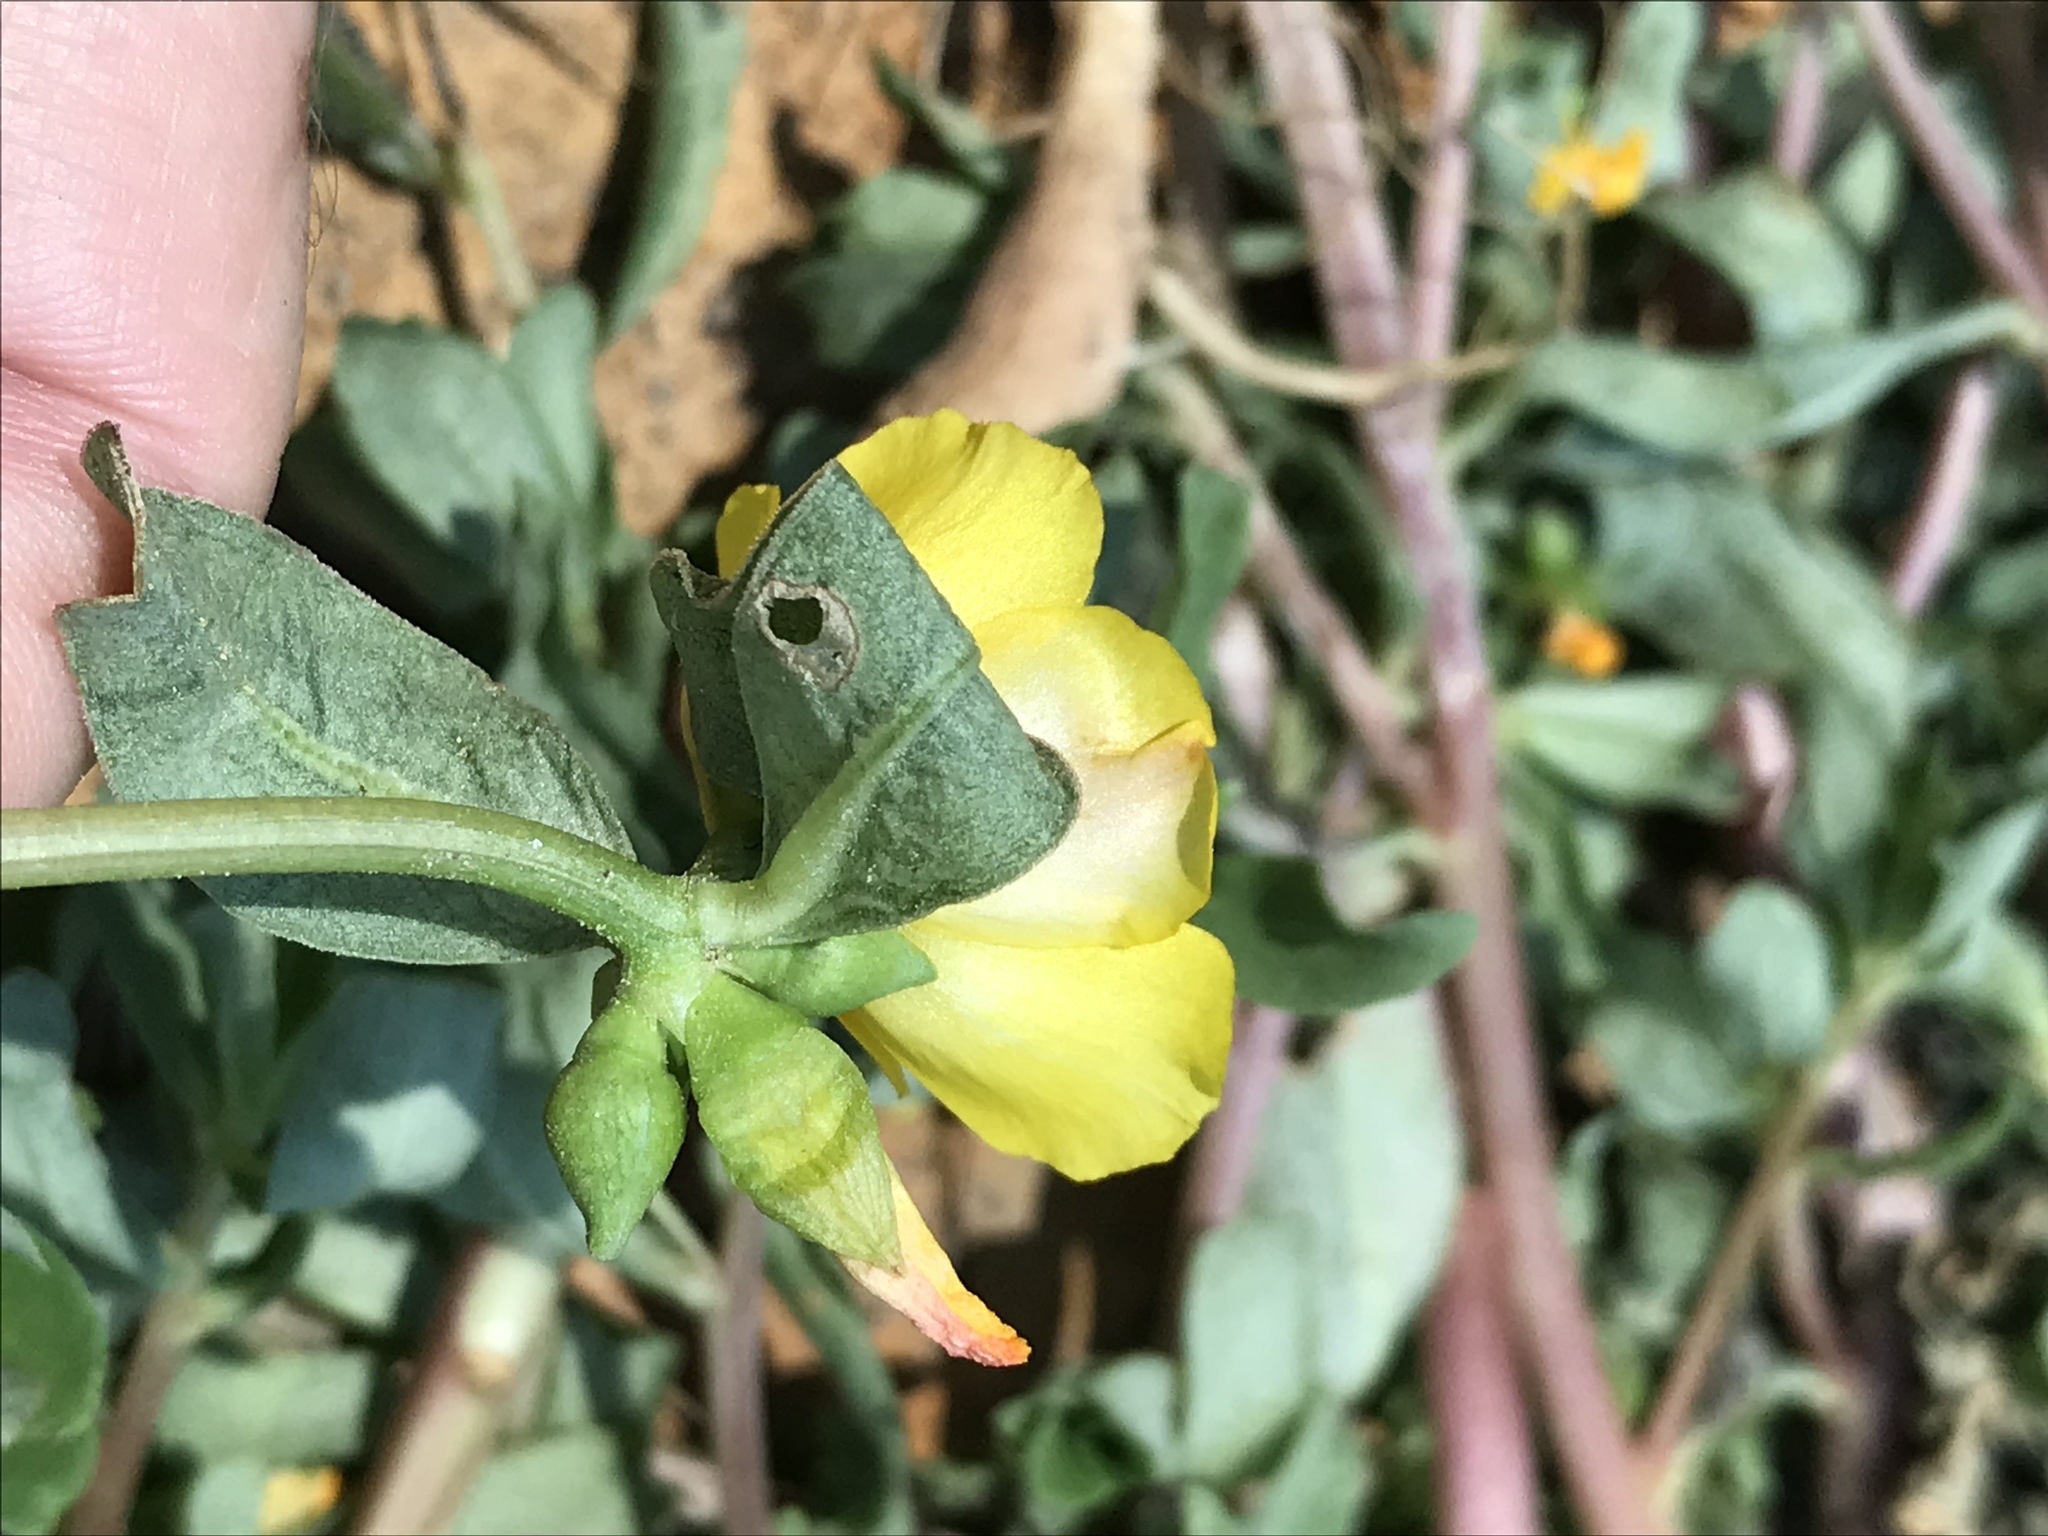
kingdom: Plantae
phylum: Tracheophyta
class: Magnoliopsida
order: Caryophyllales
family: Portulacaceae
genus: Portulaca
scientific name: Portulaca umbraticola
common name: Wingpod purslane
